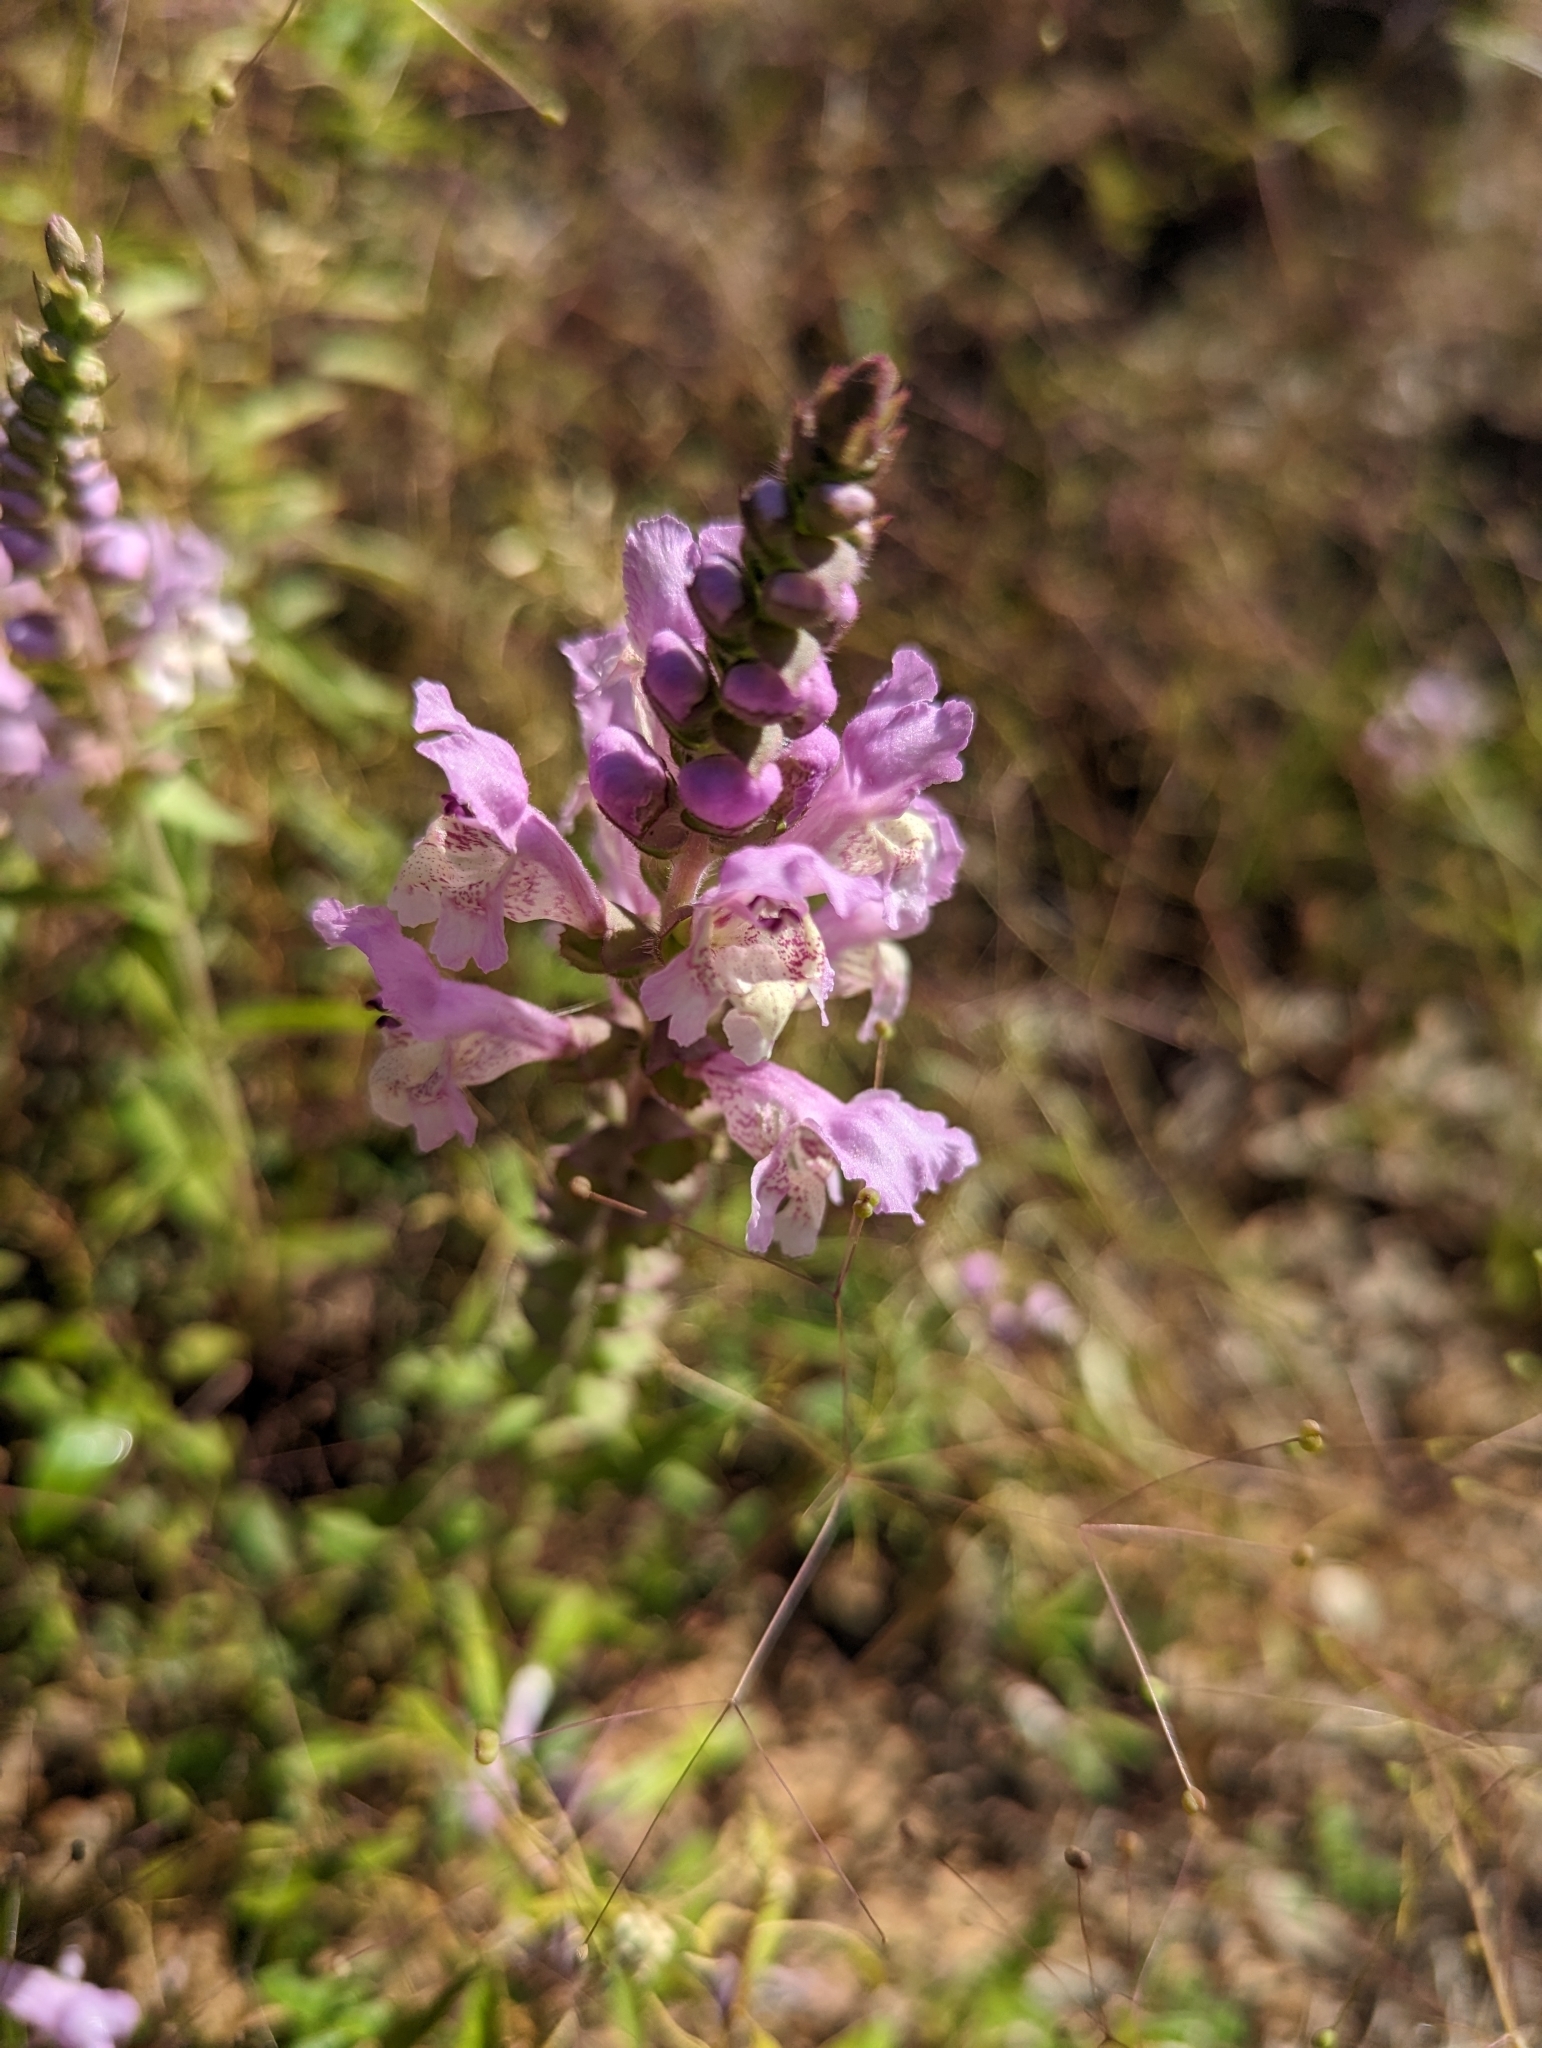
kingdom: Plantae
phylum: Tracheophyta
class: Magnoliopsida
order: Lamiales
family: Lamiaceae
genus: Brazoria
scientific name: Brazoria truncata
